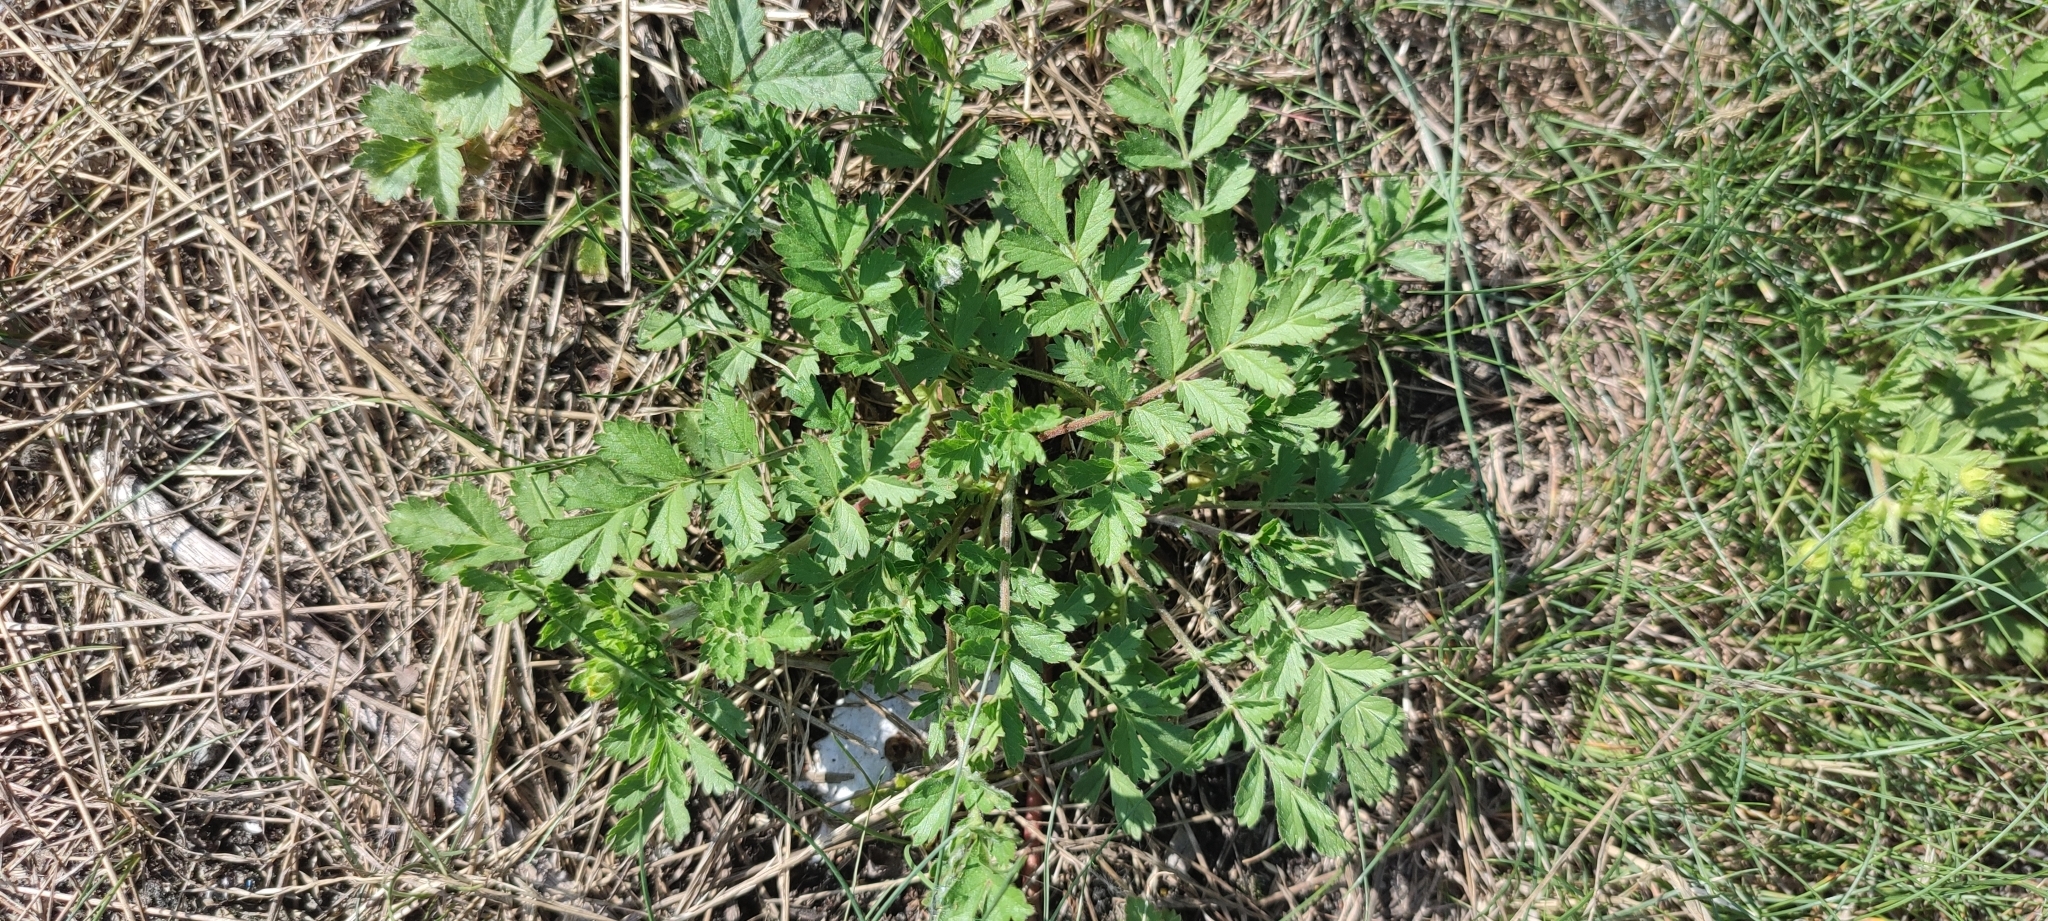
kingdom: Plantae
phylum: Tracheophyta
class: Magnoliopsida
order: Rosales
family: Rosaceae
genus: Potentilla
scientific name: Potentilla supina
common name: Prostrate cinquefoil
